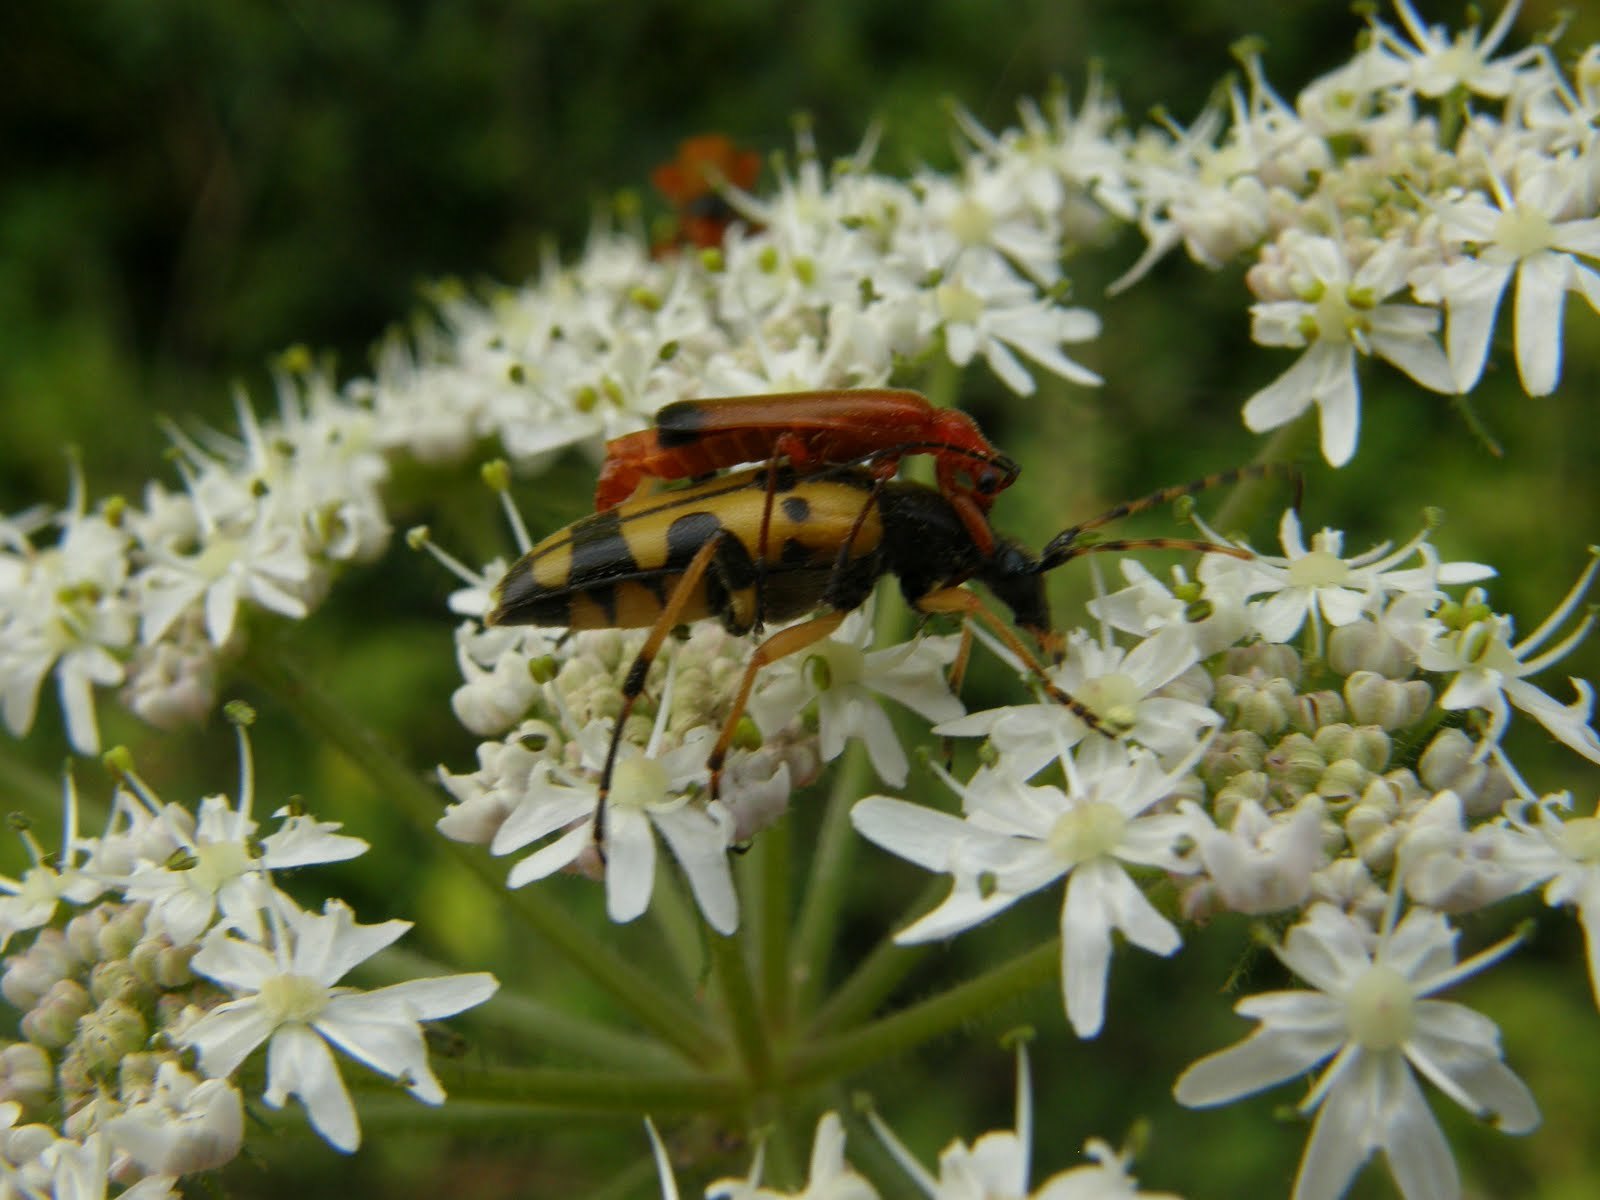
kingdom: Animalia
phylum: Arthropoda
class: Insecta
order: Coleoptera
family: Cantharidae
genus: Rhagonycha
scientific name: Rhagonycha fulva
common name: Common red soldier beetle
